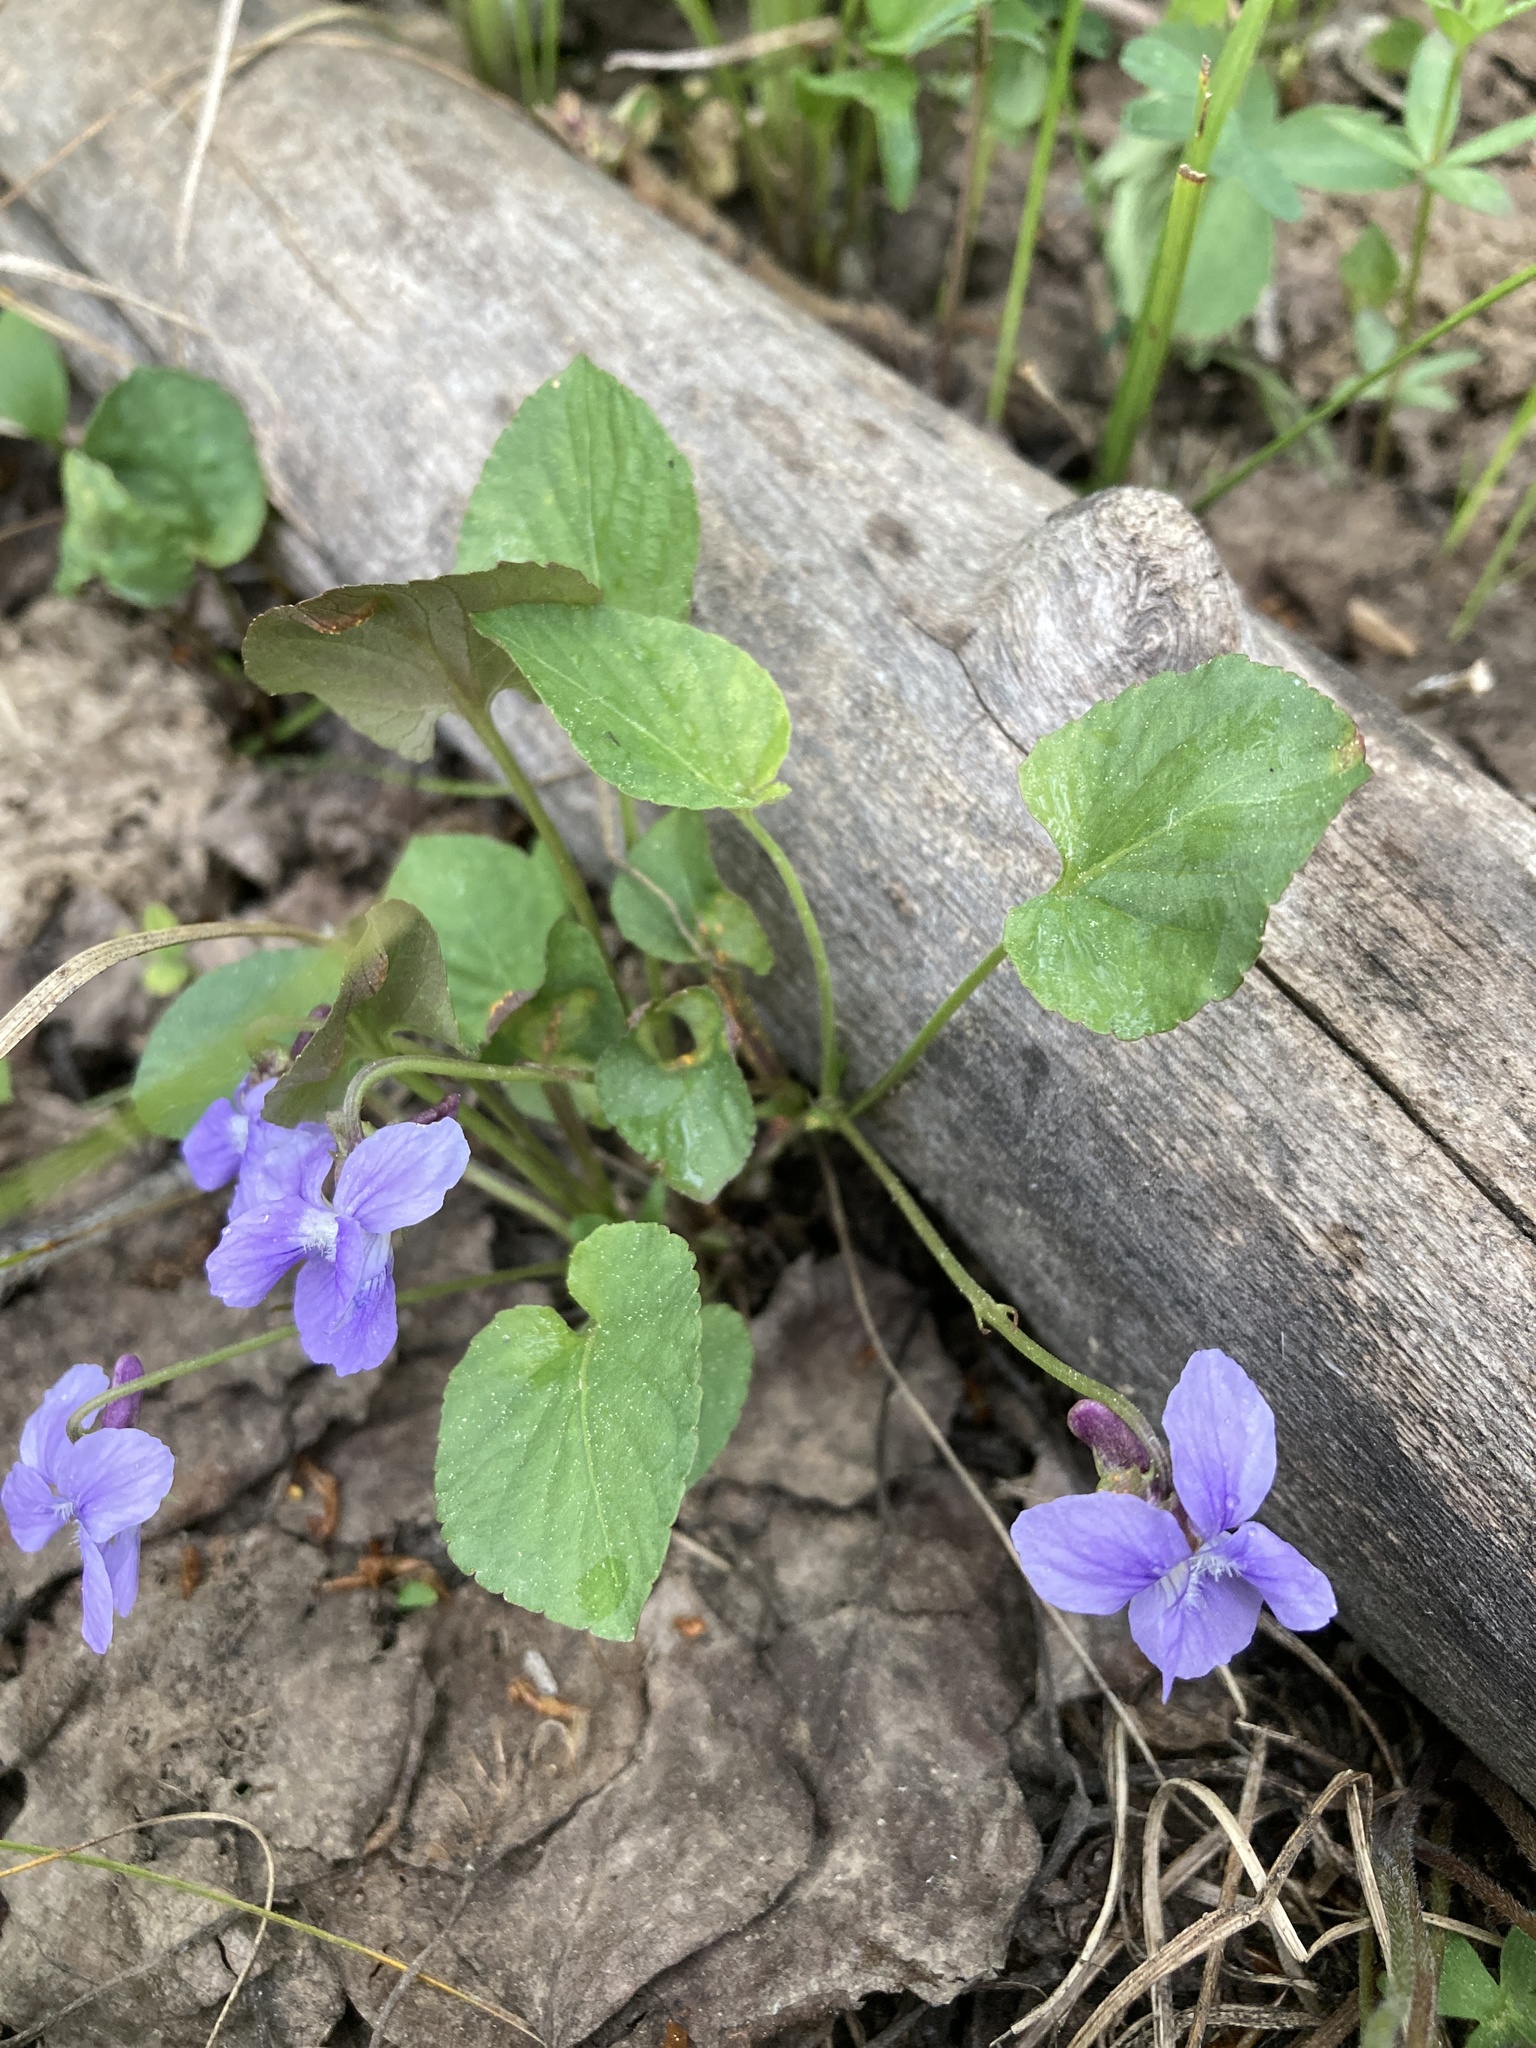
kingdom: Plantae
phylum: Tracheophyta
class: Magnoliopsida
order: Malpighiales
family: Violaceae
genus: Viola
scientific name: Viola adunca
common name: Sand violet
